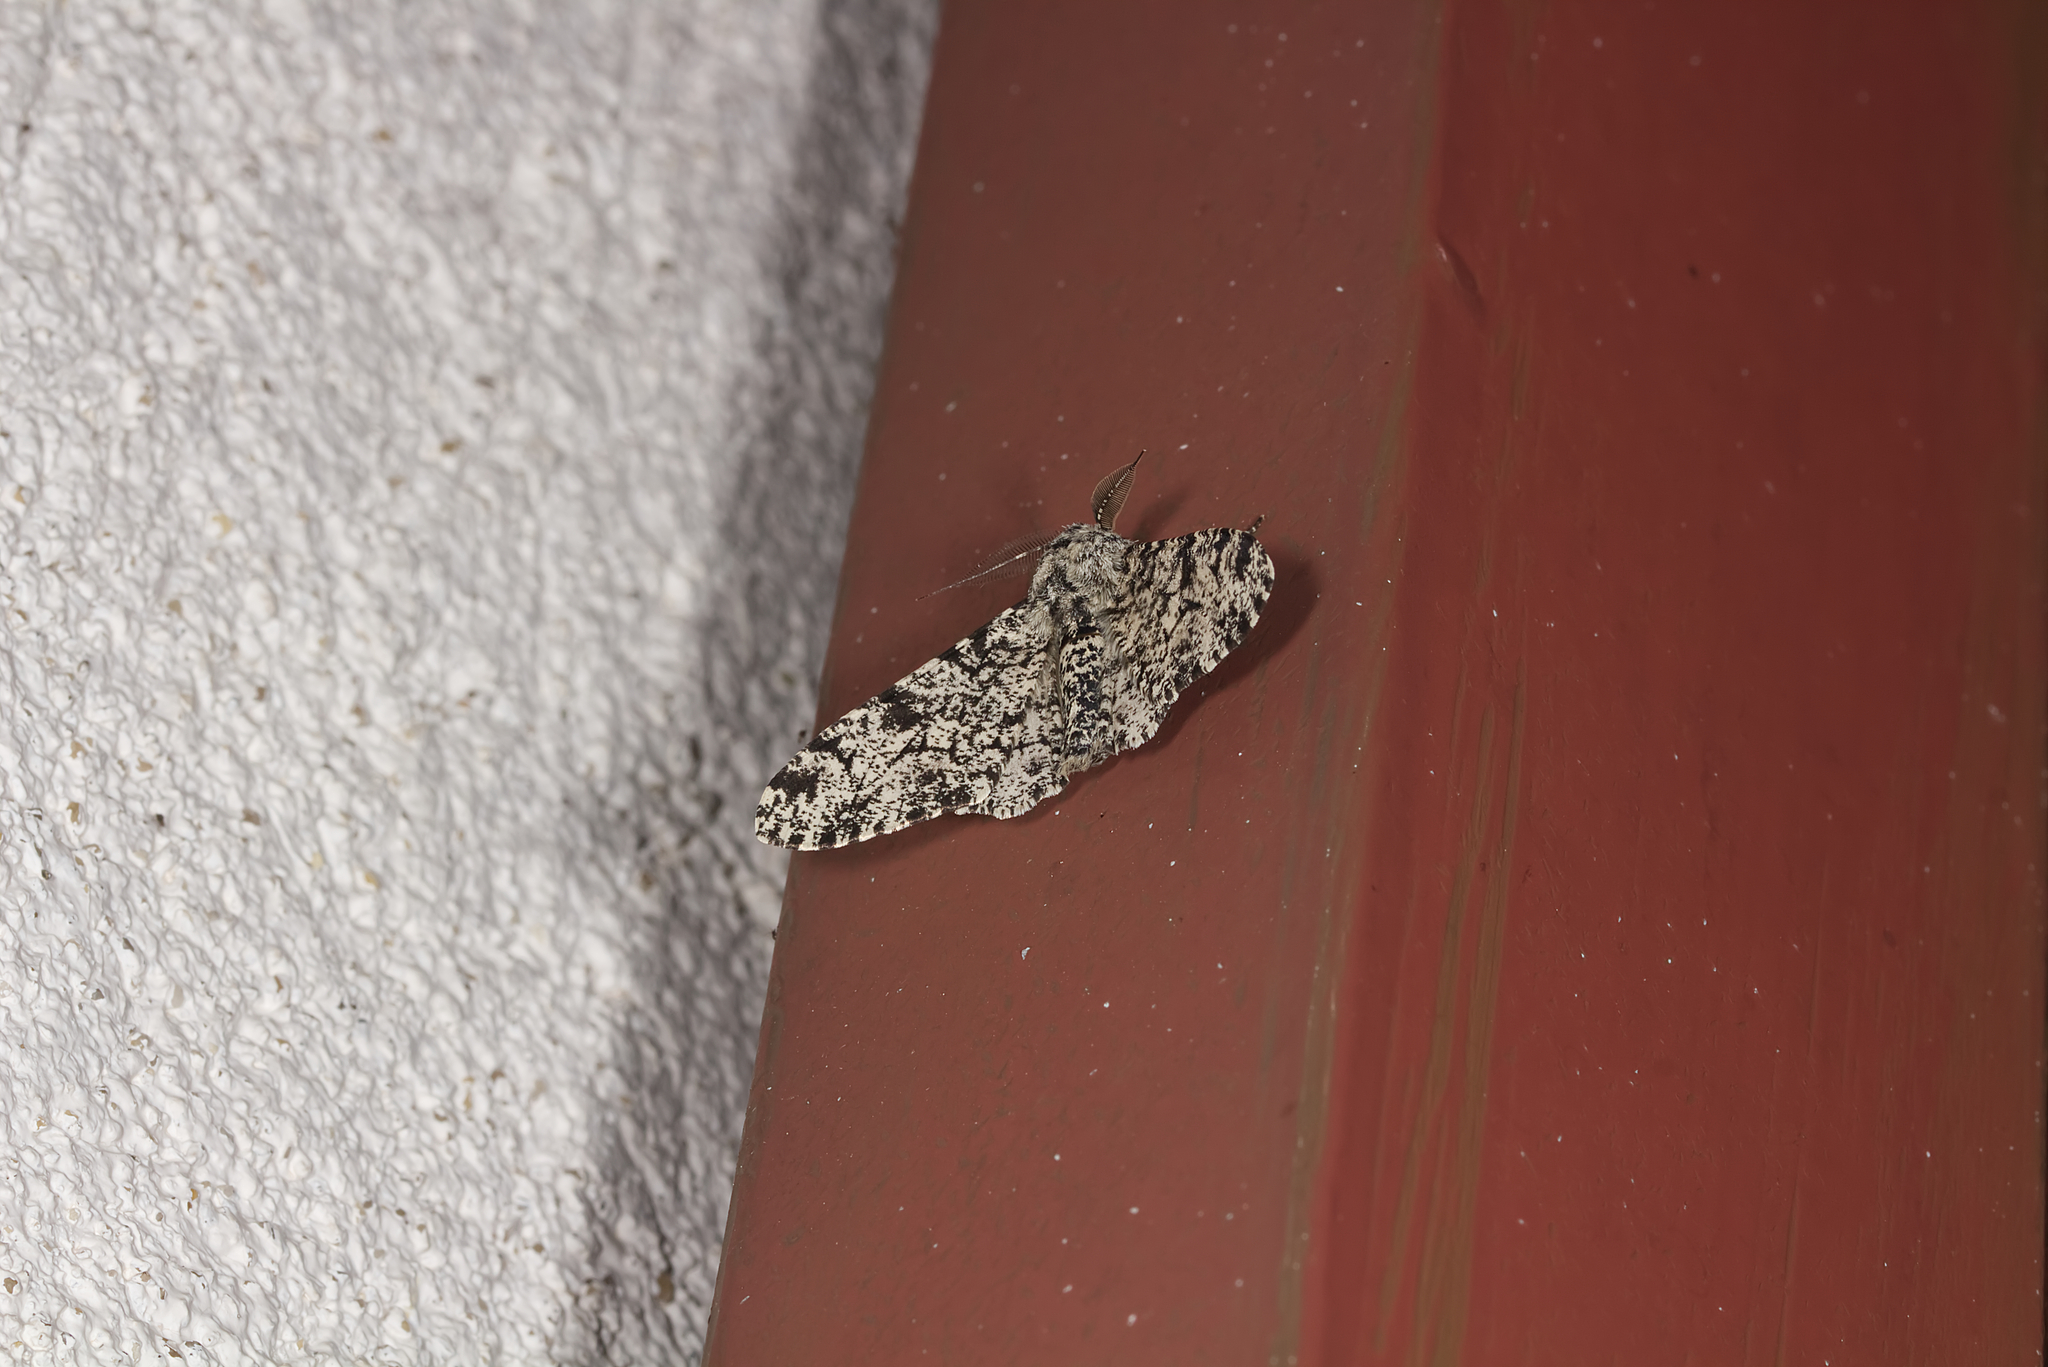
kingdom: Animalia
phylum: Arthropoda
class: Insecta
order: Lepidoptera
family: Geometridae
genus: Biston
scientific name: Biston betularia
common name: Peppered moth
